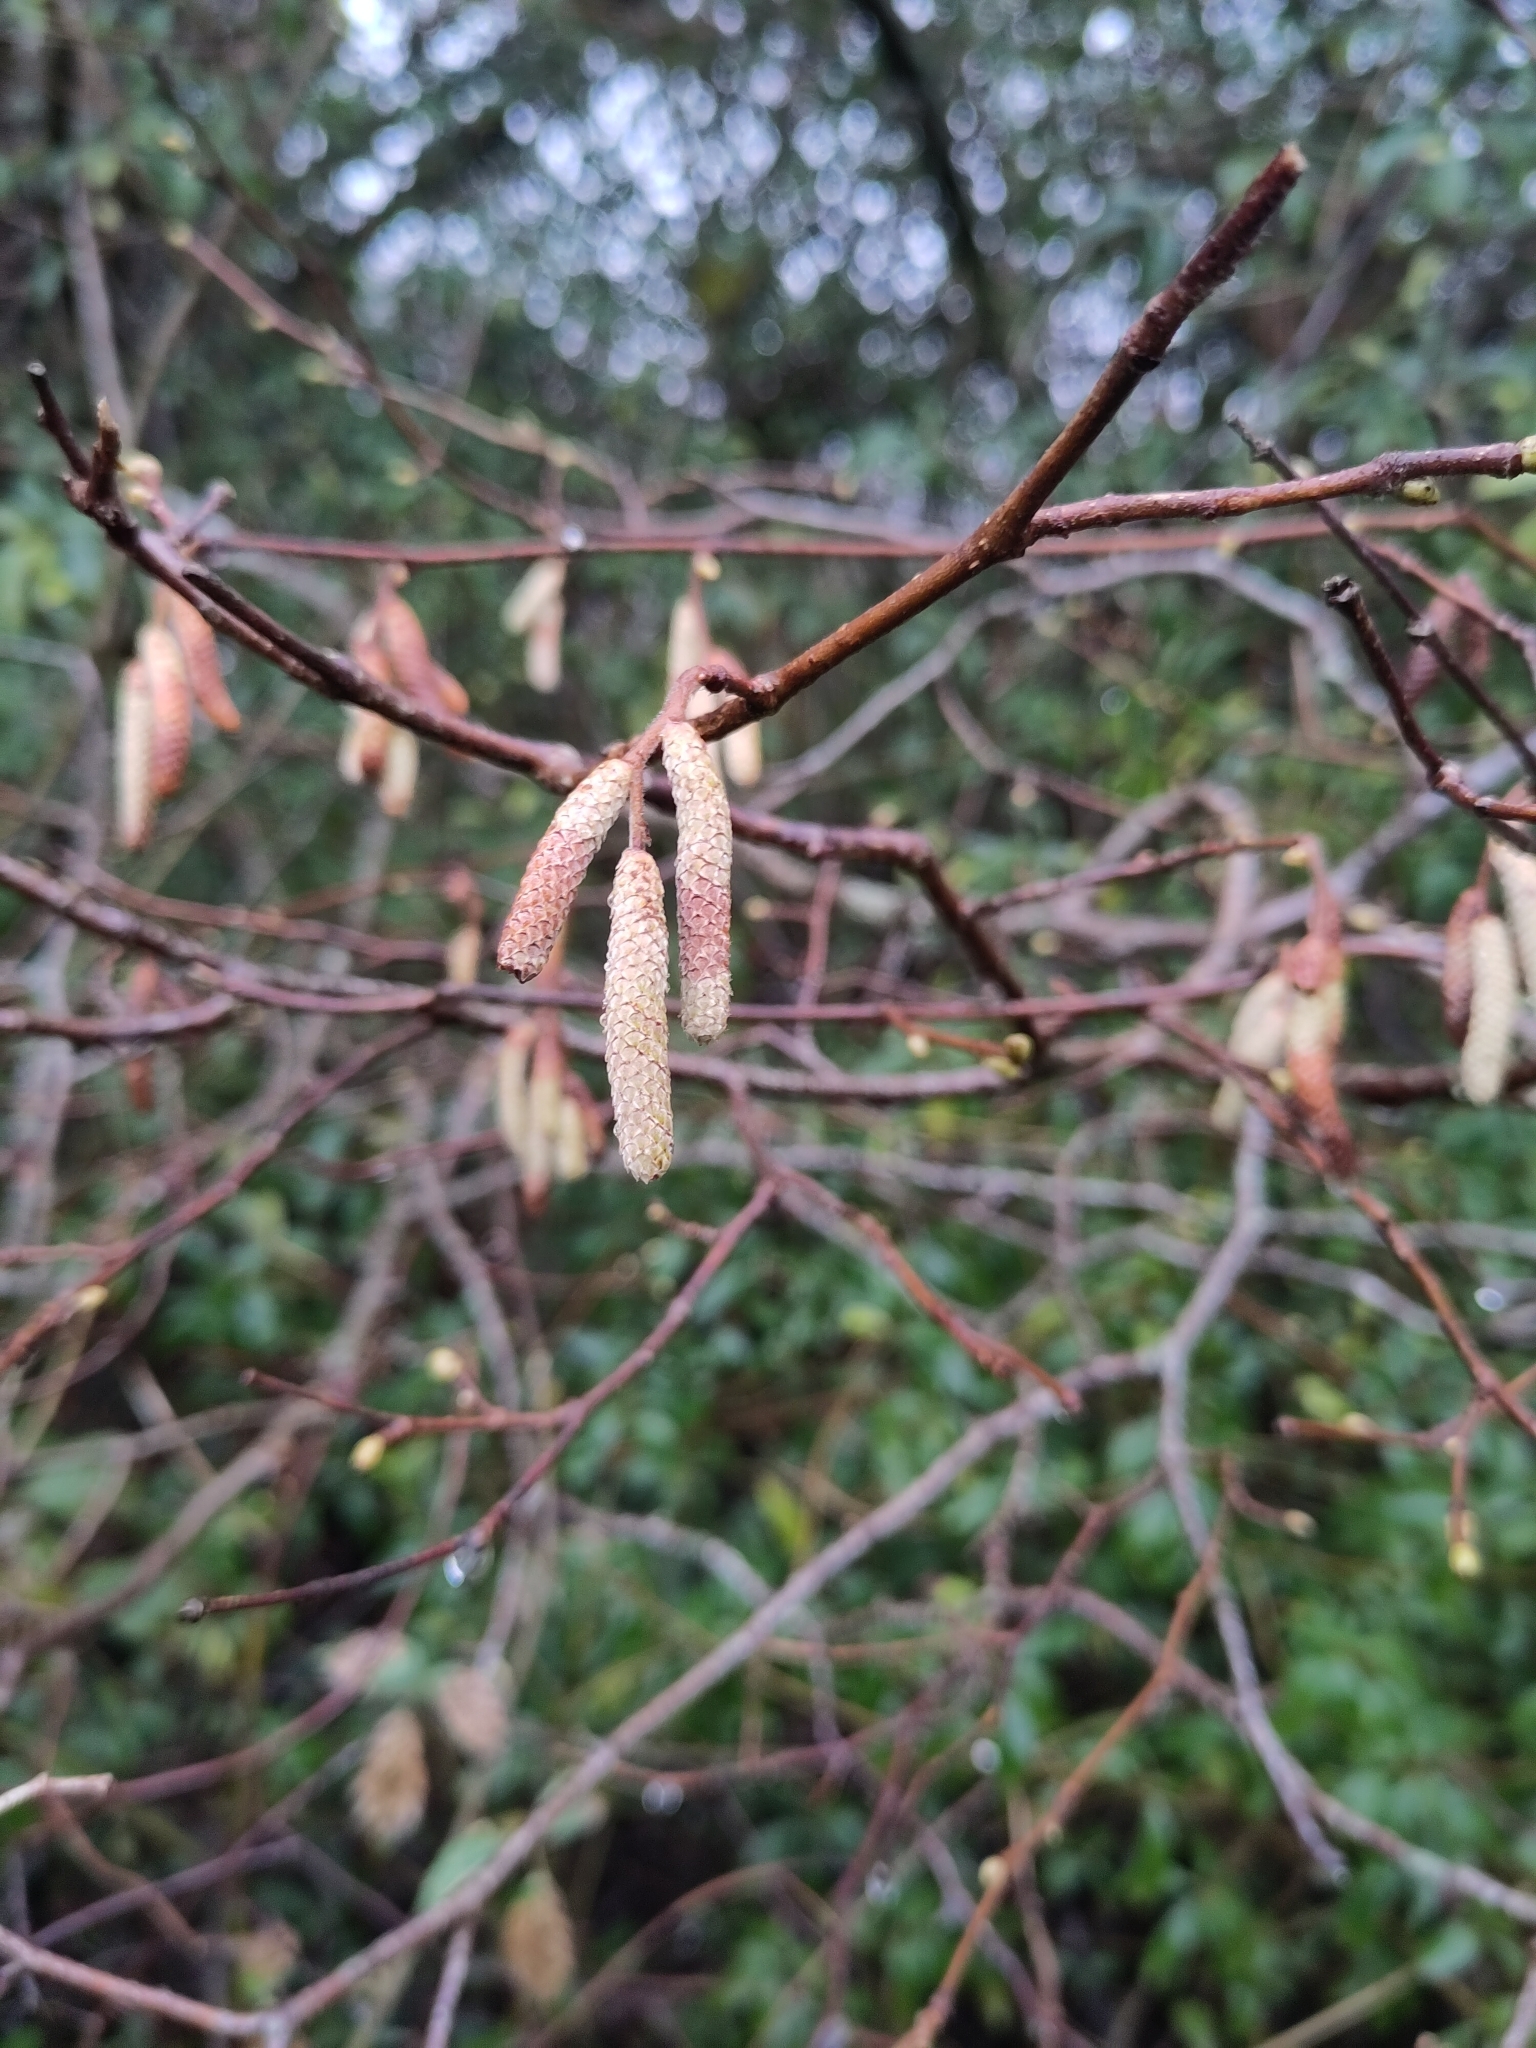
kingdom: Plantae
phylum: Tracheophyta
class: Magnoliopsida
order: Fagales
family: Betulaceae
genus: Corylus
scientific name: Corylus avellana
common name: European hazel
